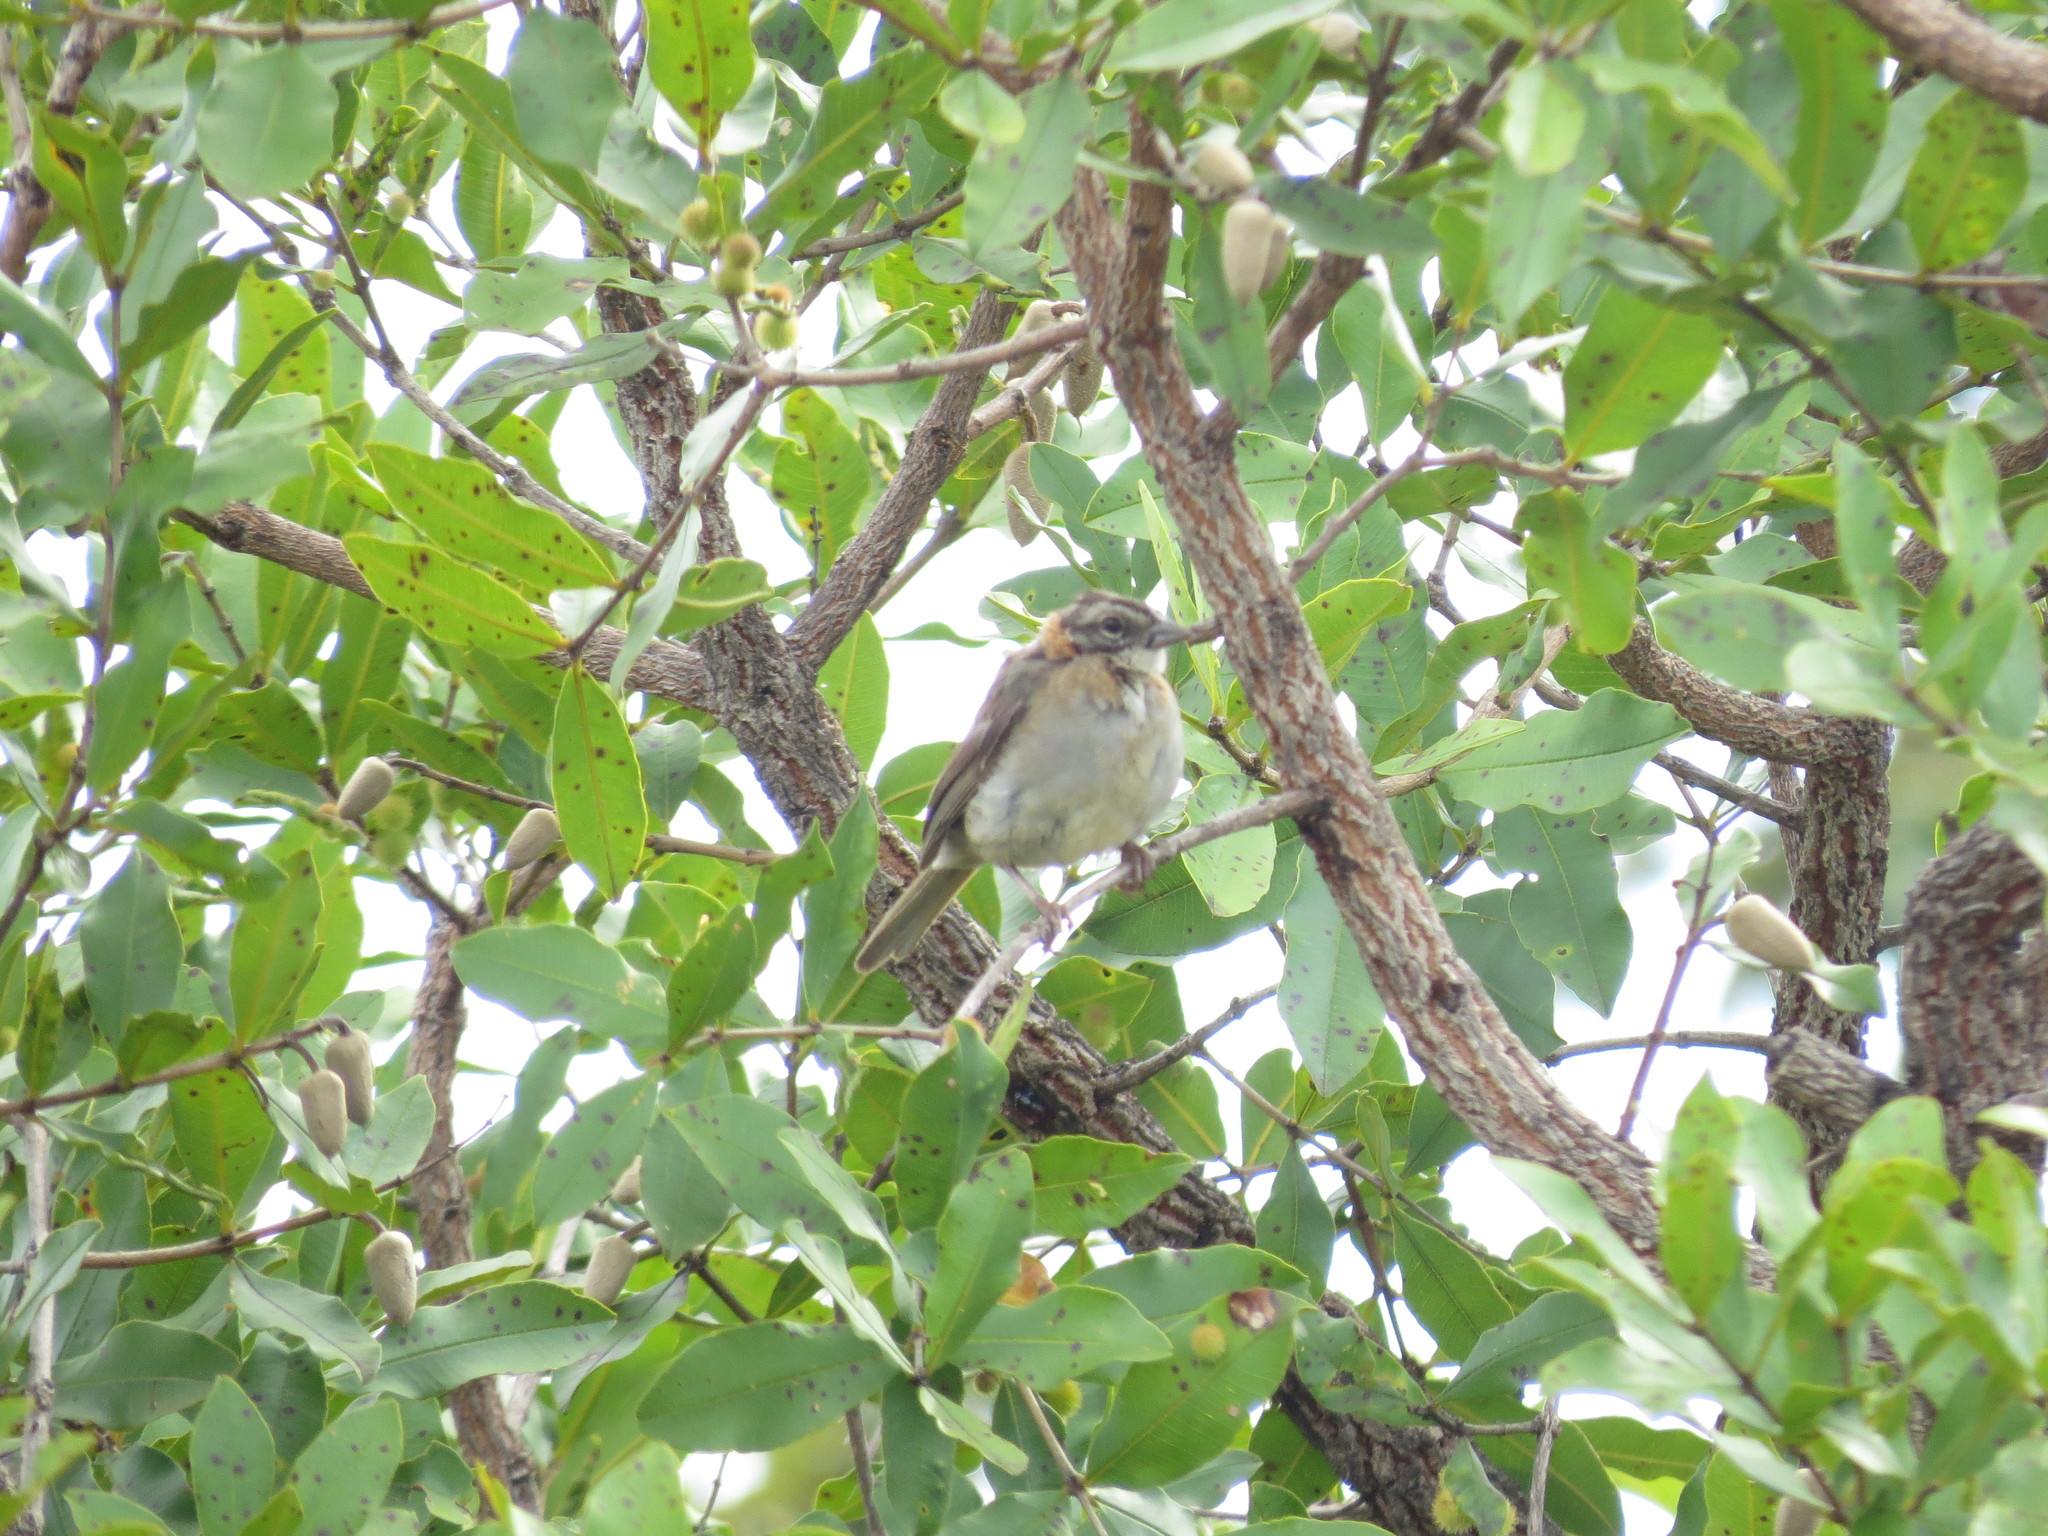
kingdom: Animalia
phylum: Chordata
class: Aves
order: Passeriformes
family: Passerellidae
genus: Zonotrichia
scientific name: Zonotrichia capensis
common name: Rufous-collared sparrow
